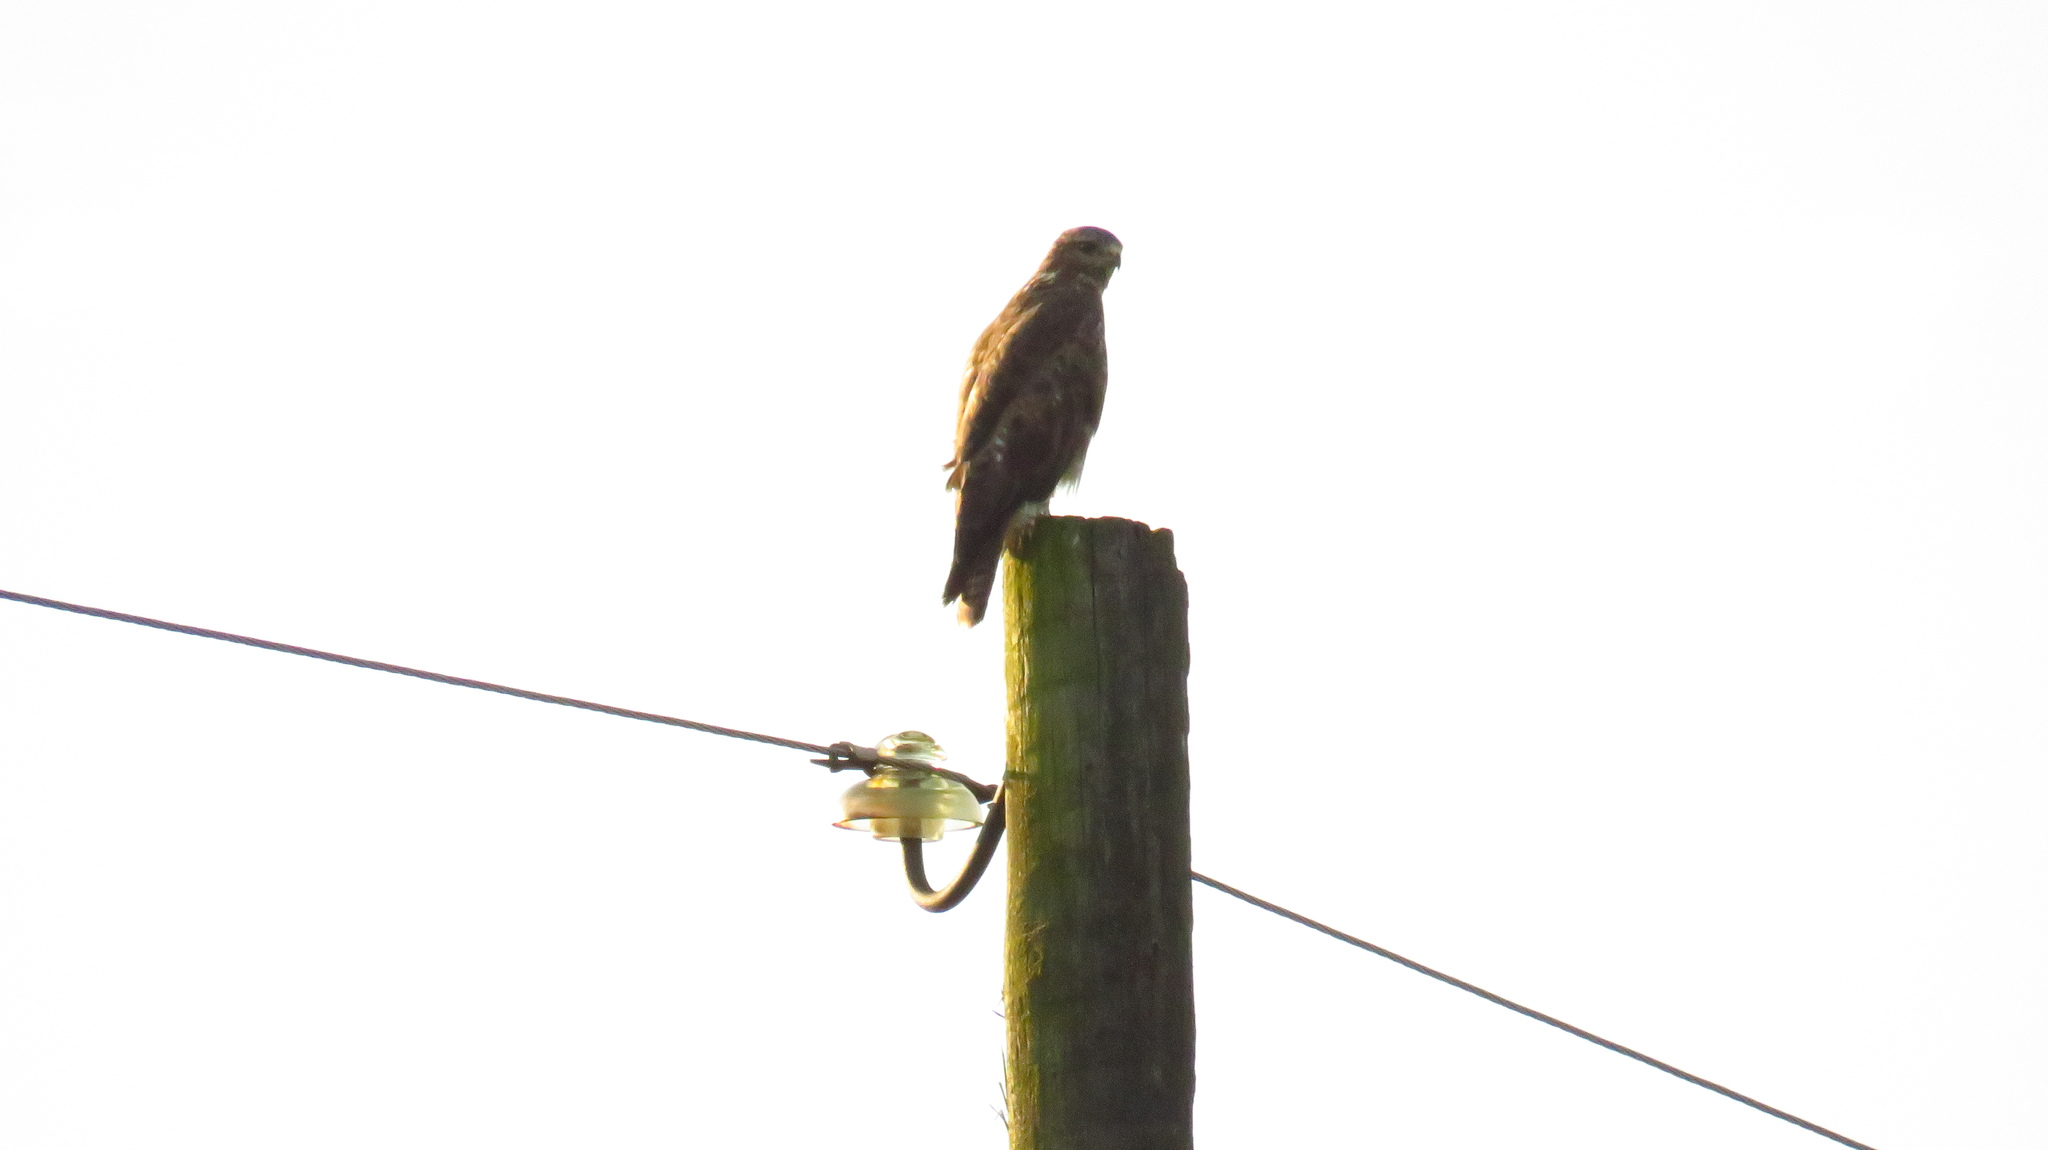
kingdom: Animalia
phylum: Chordata
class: Aves
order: Accipitriformes
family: Accipitridae
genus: Buteo
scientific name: Buteo buteo
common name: Common buzzard
